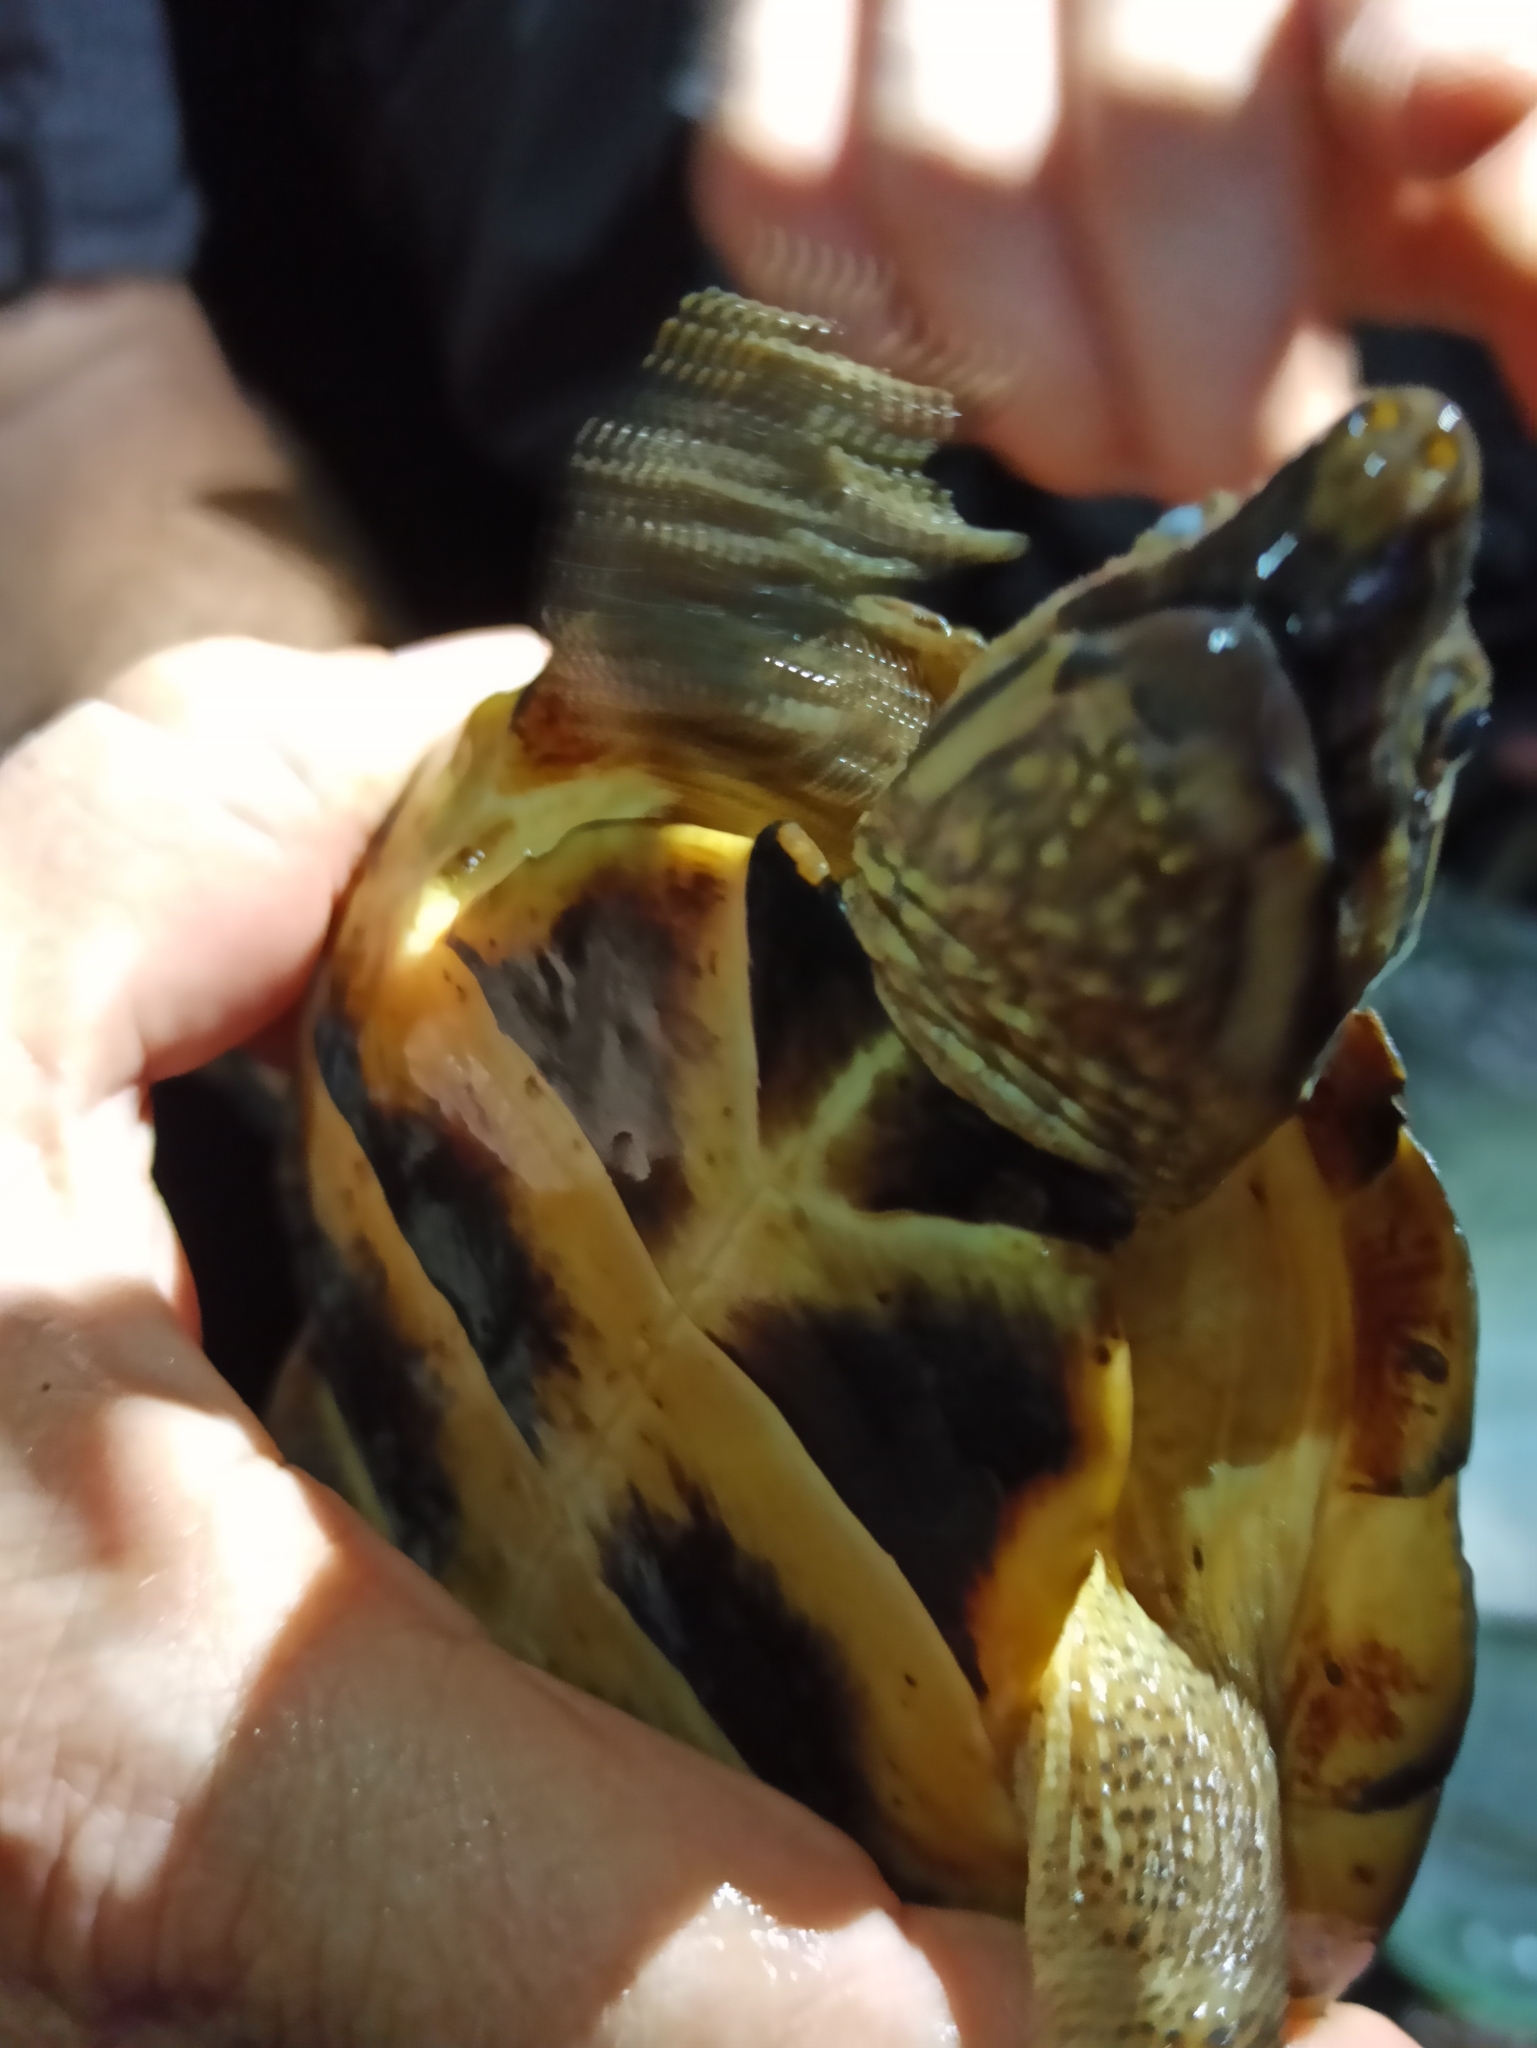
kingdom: Animalia
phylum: Chordata
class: Testudines
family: Geoemydidae
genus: Rhinoclemmys
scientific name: Rhinoclemmys nasuta
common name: Large-nosed wood turtle
